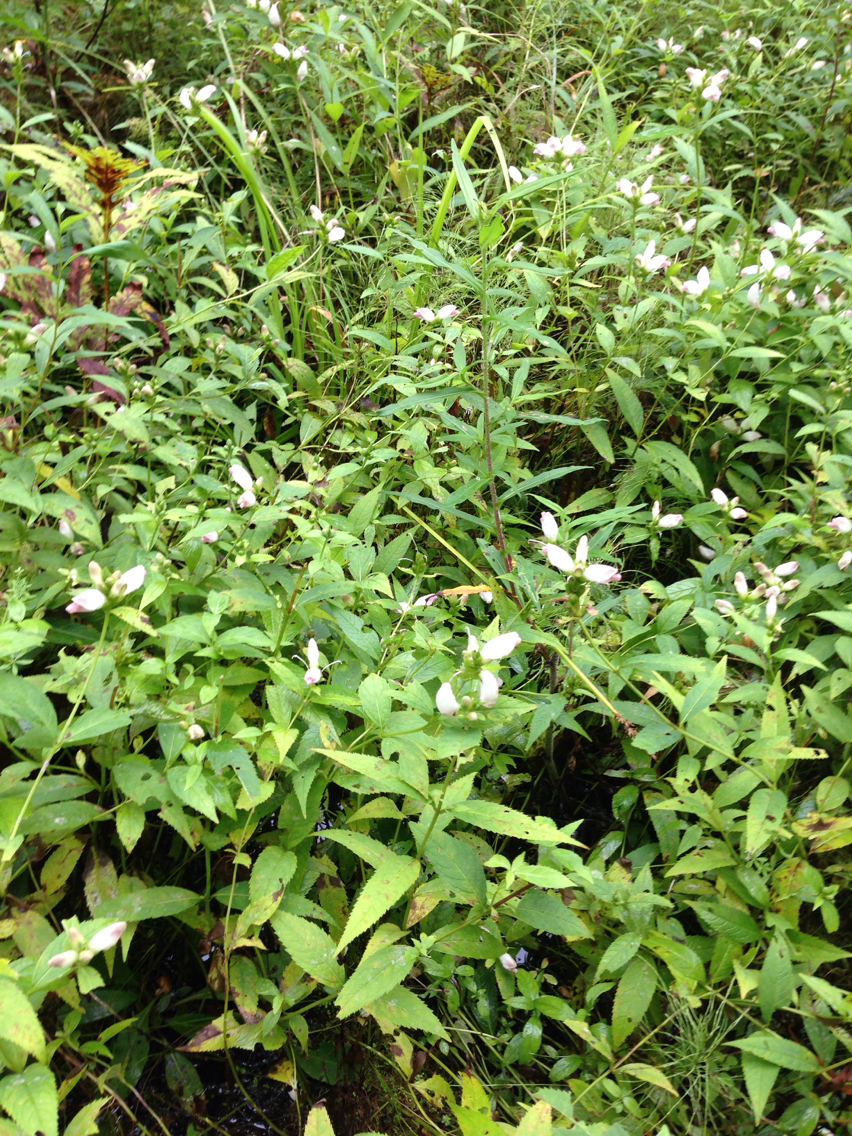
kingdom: Plantae
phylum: Tracheophyta
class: Magnoliopsida
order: Lamiales
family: Plantaginaceae
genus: Chelone
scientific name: Chelone glabra
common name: Snakehead
